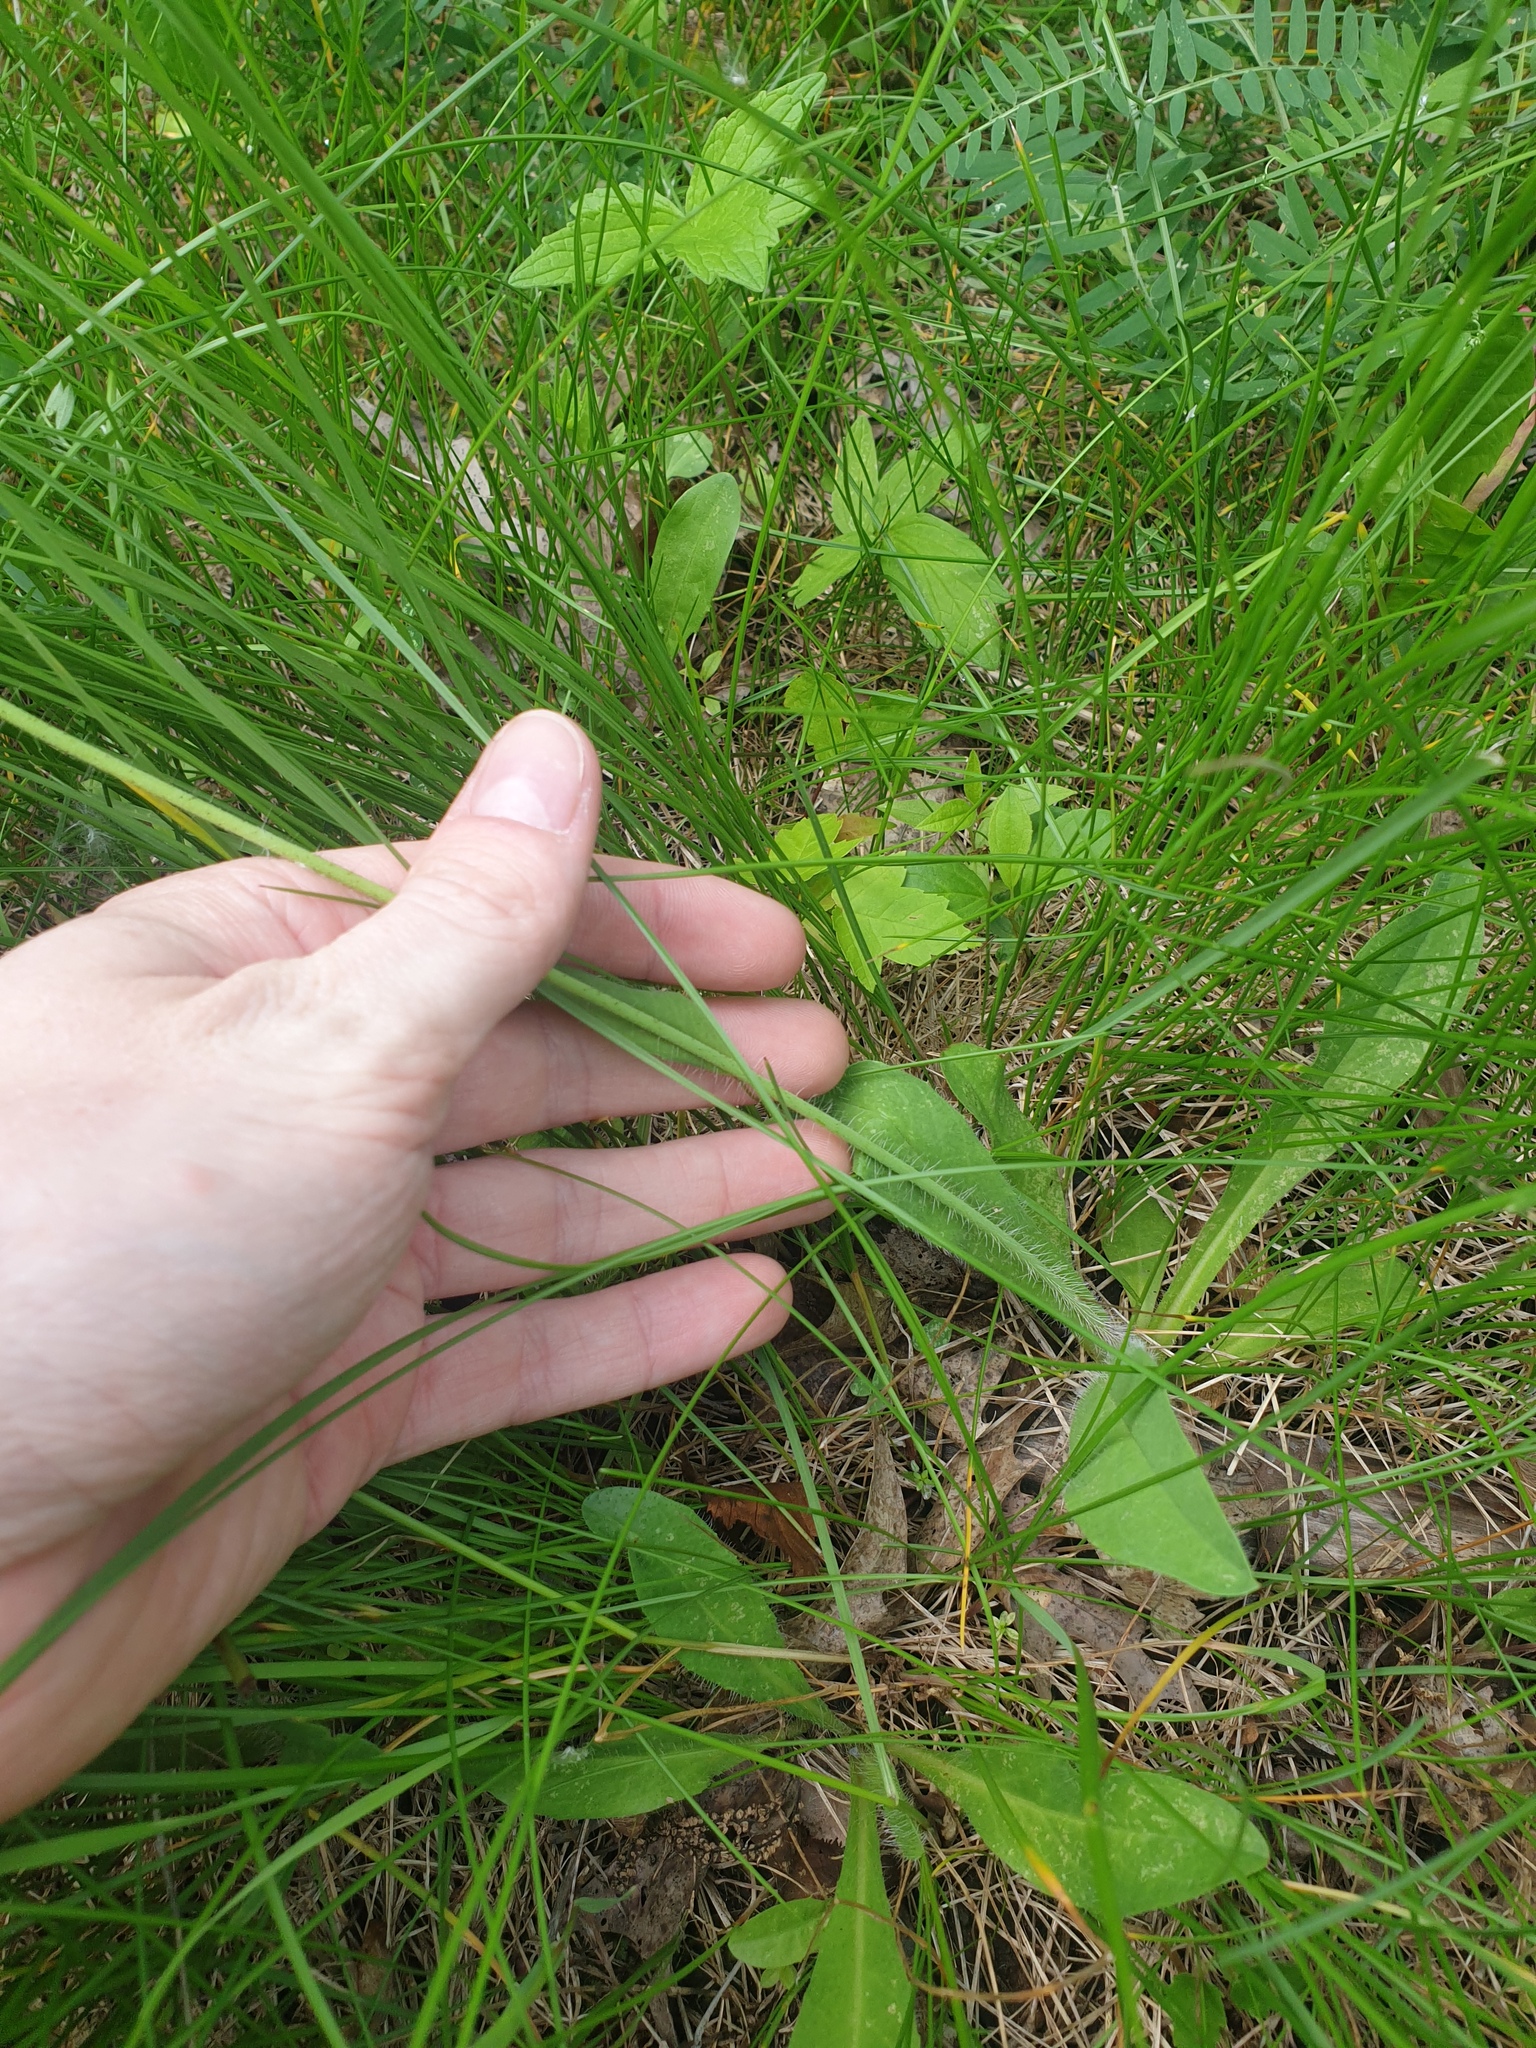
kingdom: Plantae
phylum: Tracheophyta
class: Magnoliopsida
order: Asterales
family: Asteraceae
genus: Pilosella
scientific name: Pilosella aurantiaca
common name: Fox-and-cubs
